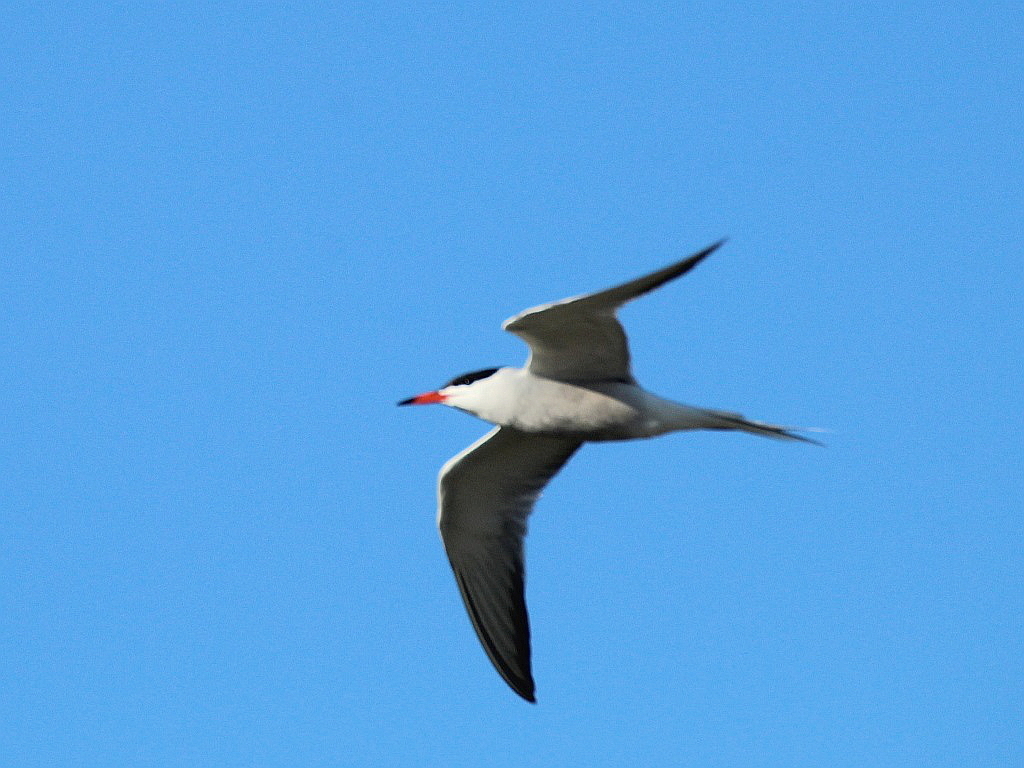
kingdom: Animalia
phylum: Chordata
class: Aves
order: Charadriiformes
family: Laridae
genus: Sterna
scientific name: Sterna hirundo
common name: Common tern
